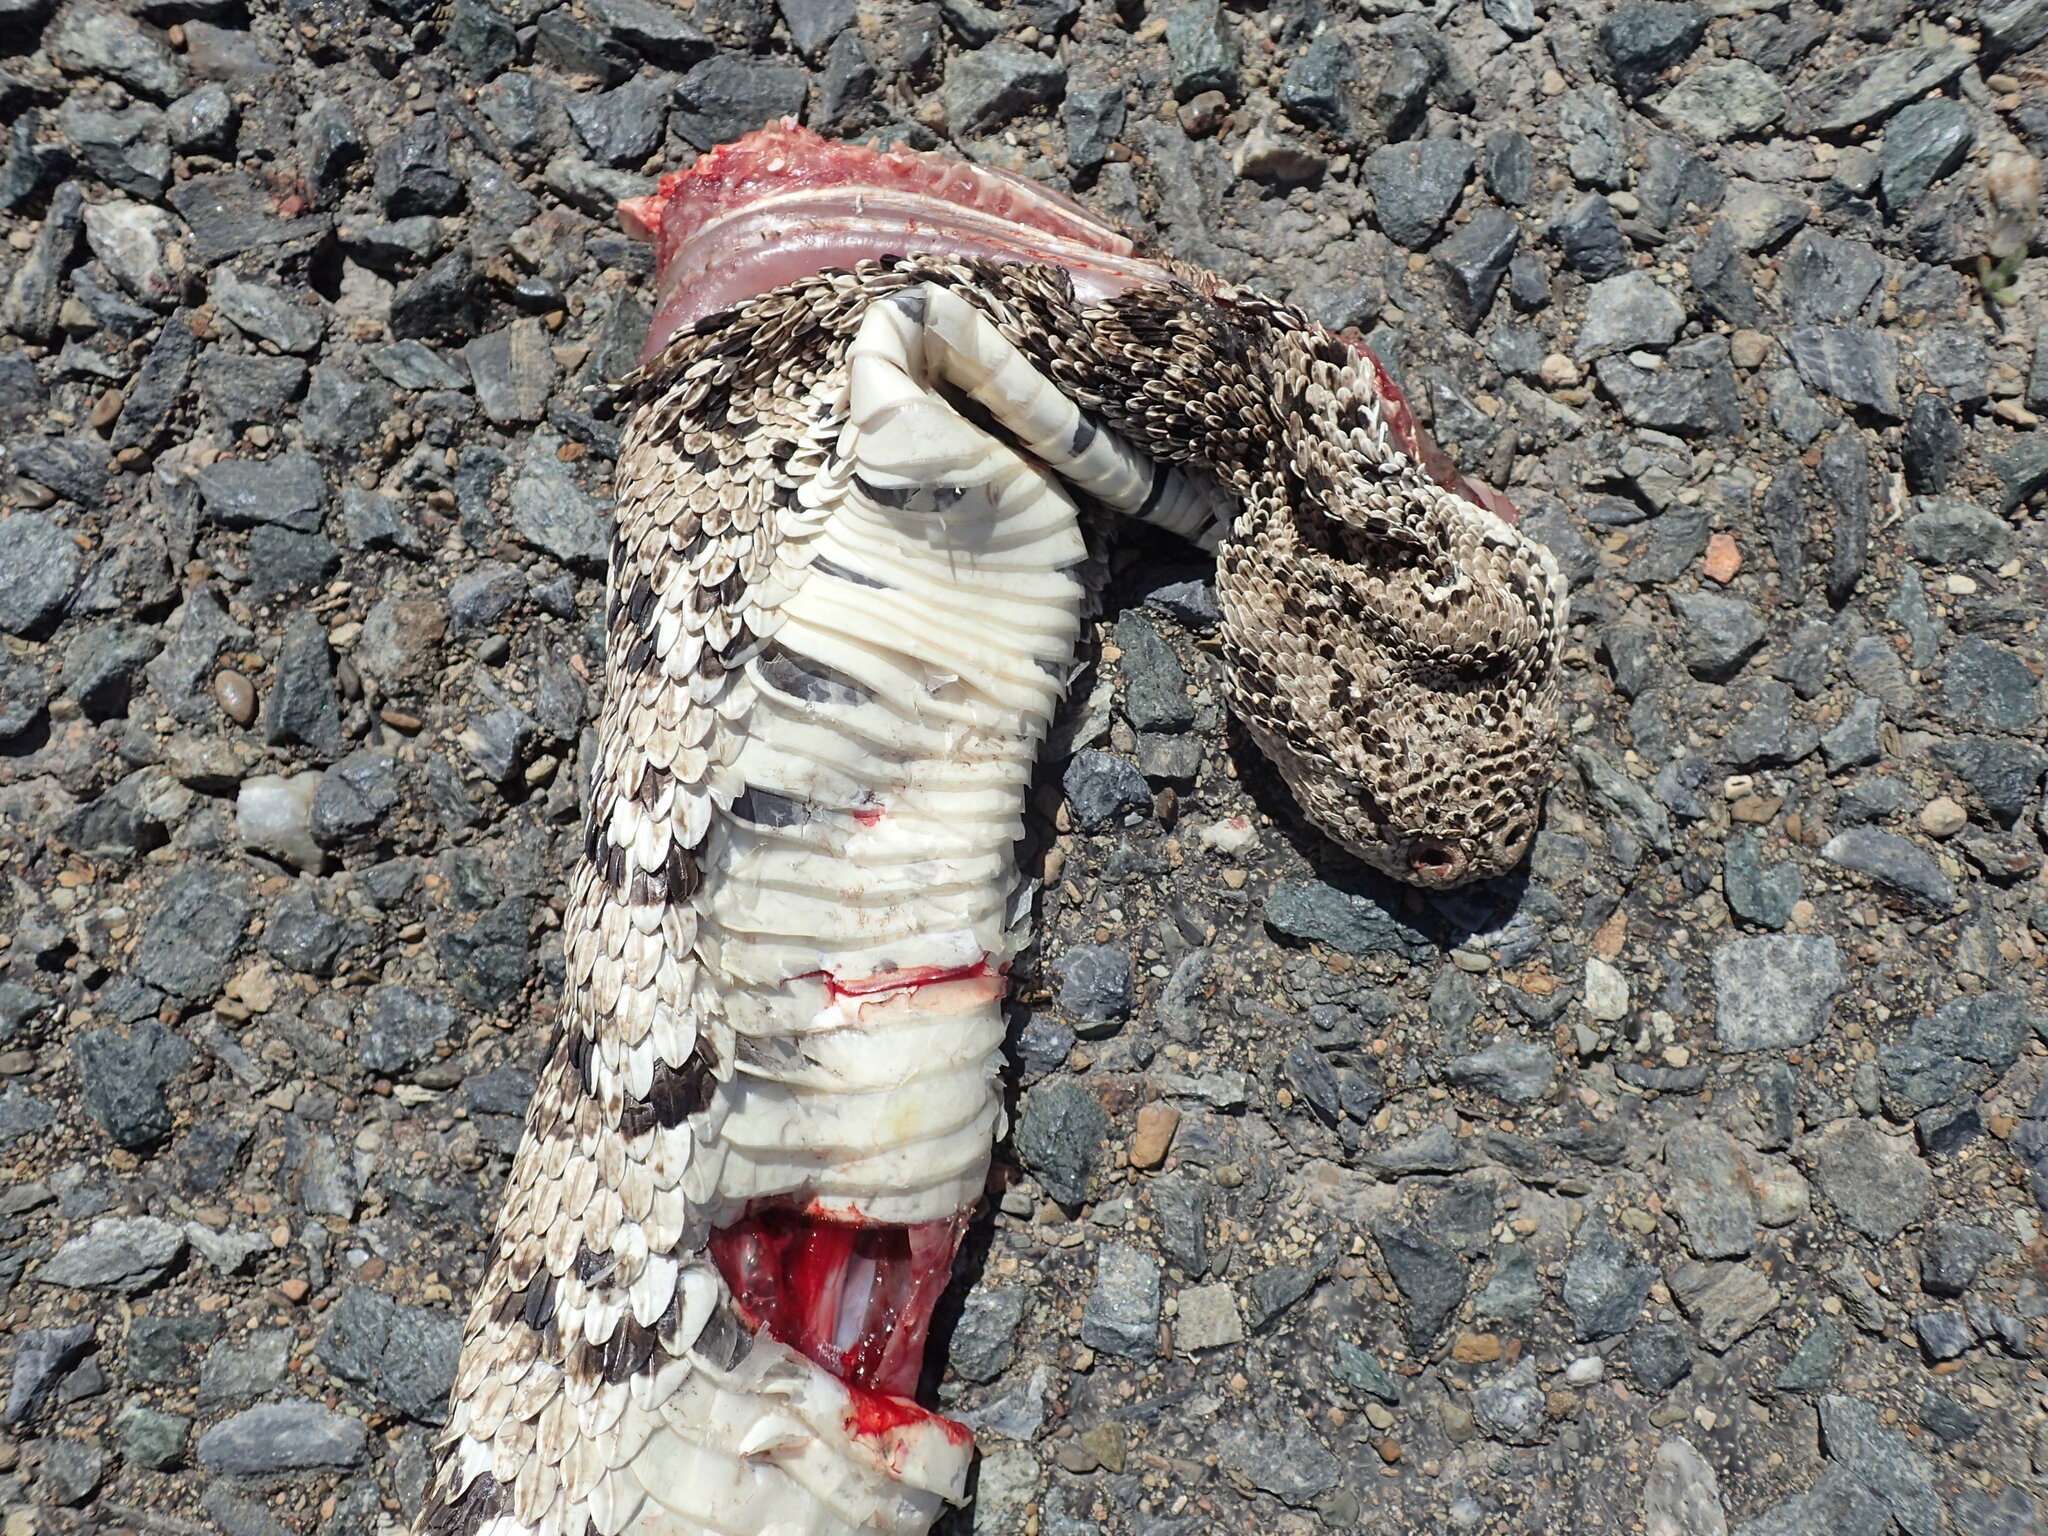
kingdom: Animalia
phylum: Chordata
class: Squamata
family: Viperidae
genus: Bitis
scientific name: Bitis arietans
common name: Puff adder
